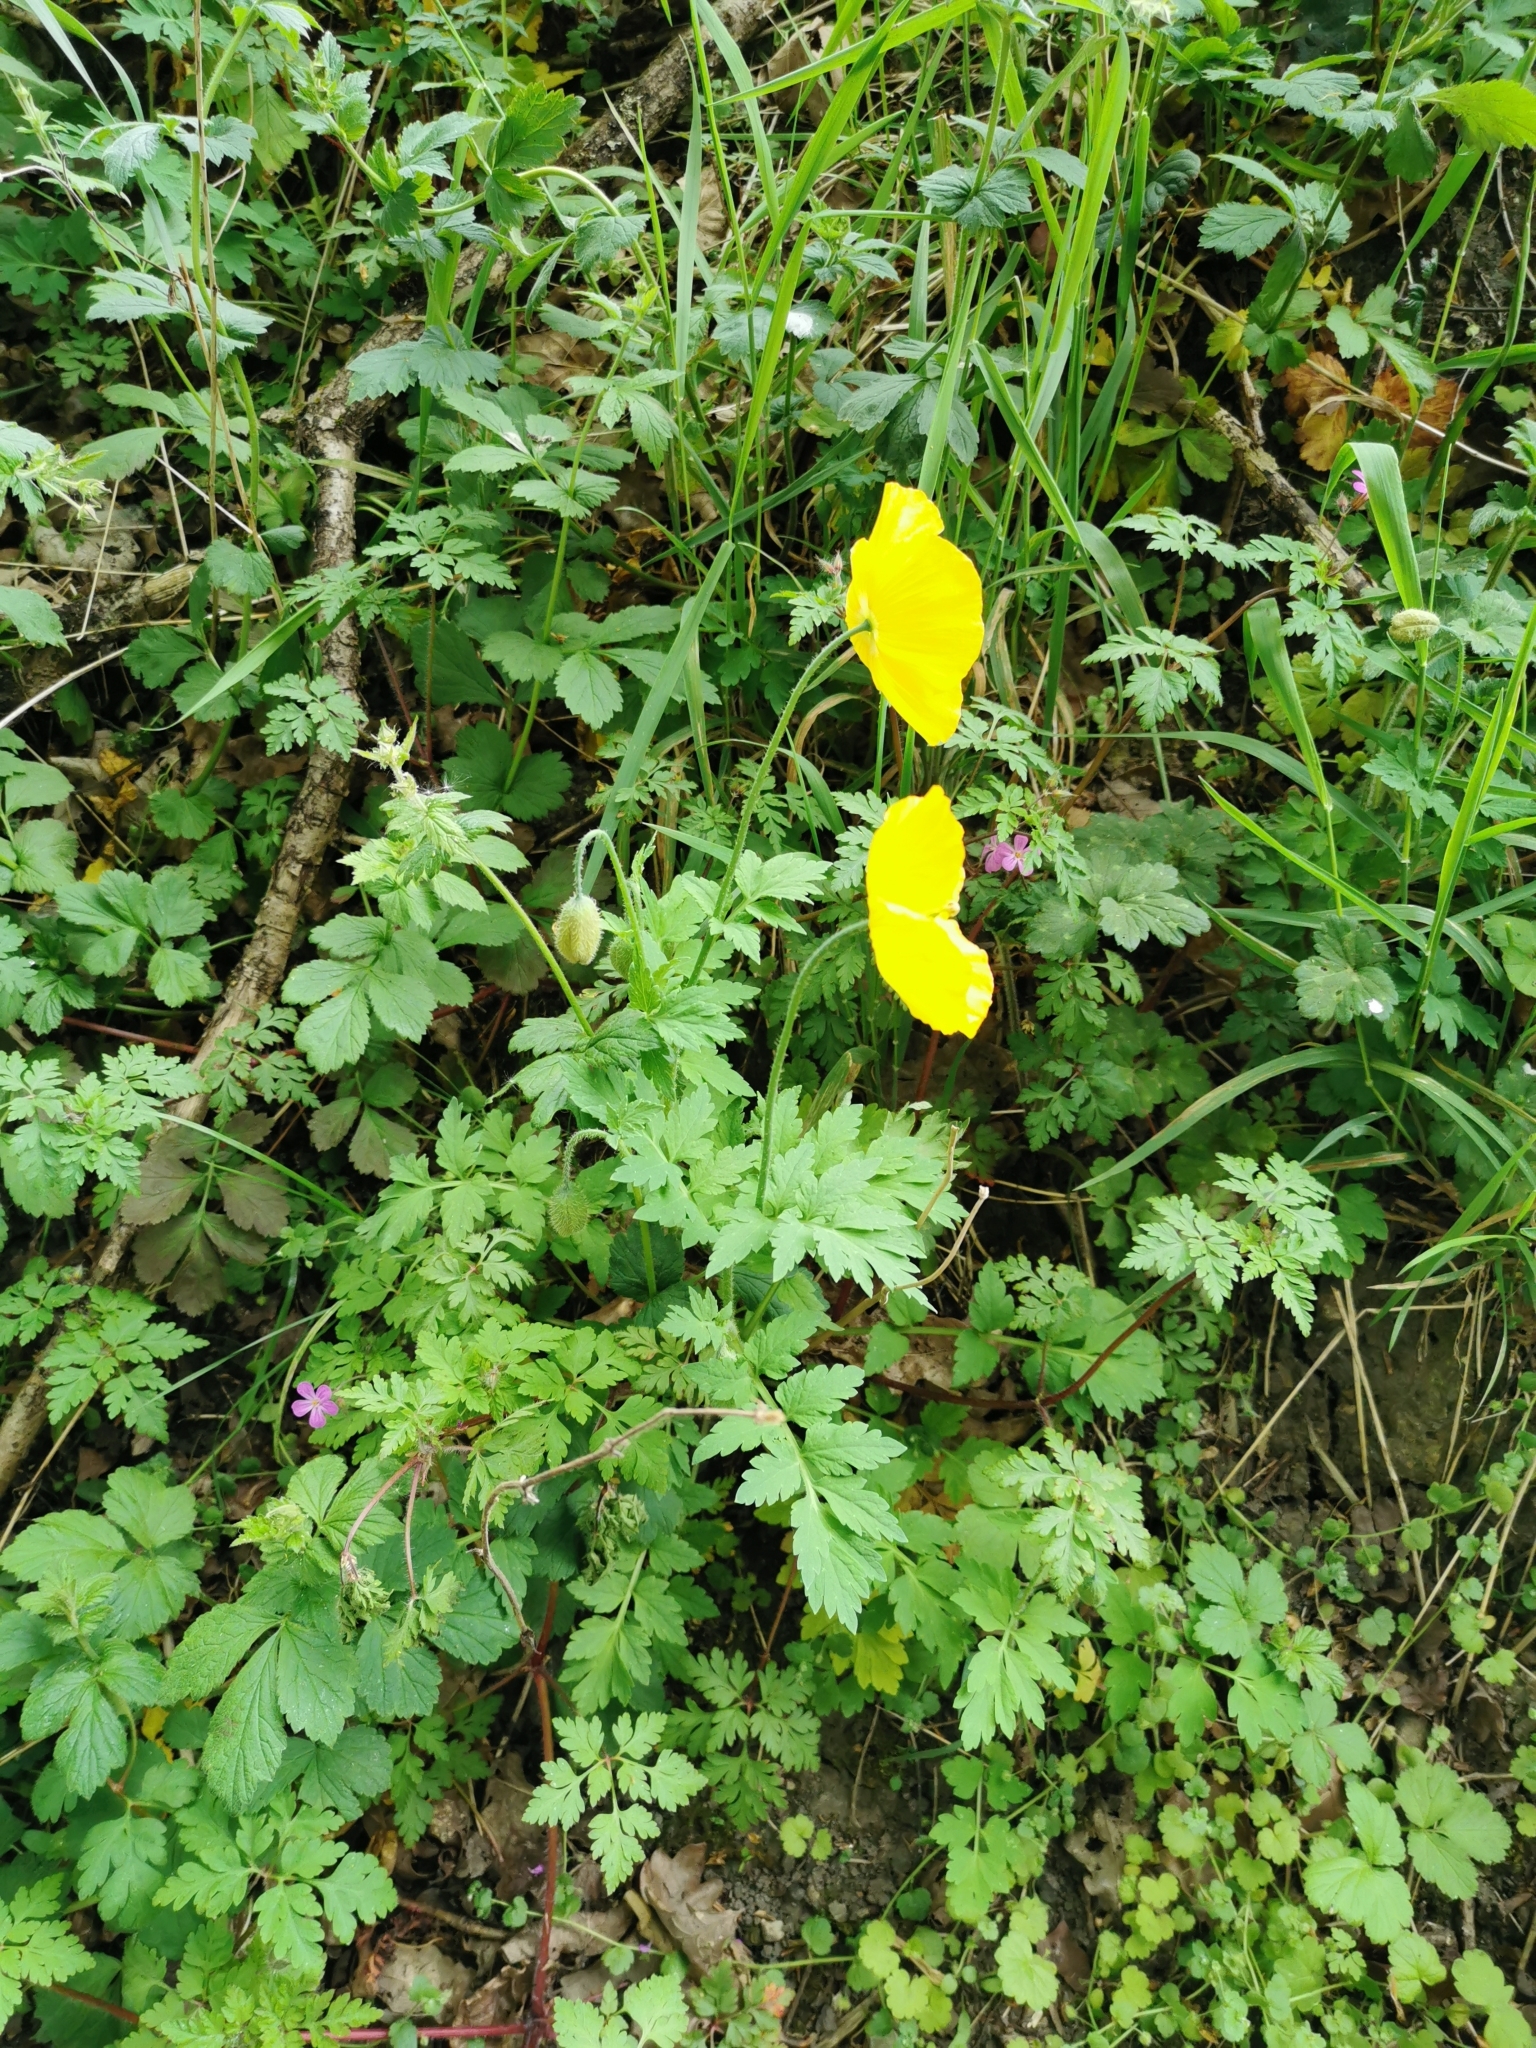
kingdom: Plantae
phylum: Tracheophyta
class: Magnoliopsida
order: Ranunculales
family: Papaveraceae
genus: Papaver
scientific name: Papaver cambricum
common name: Poppy
